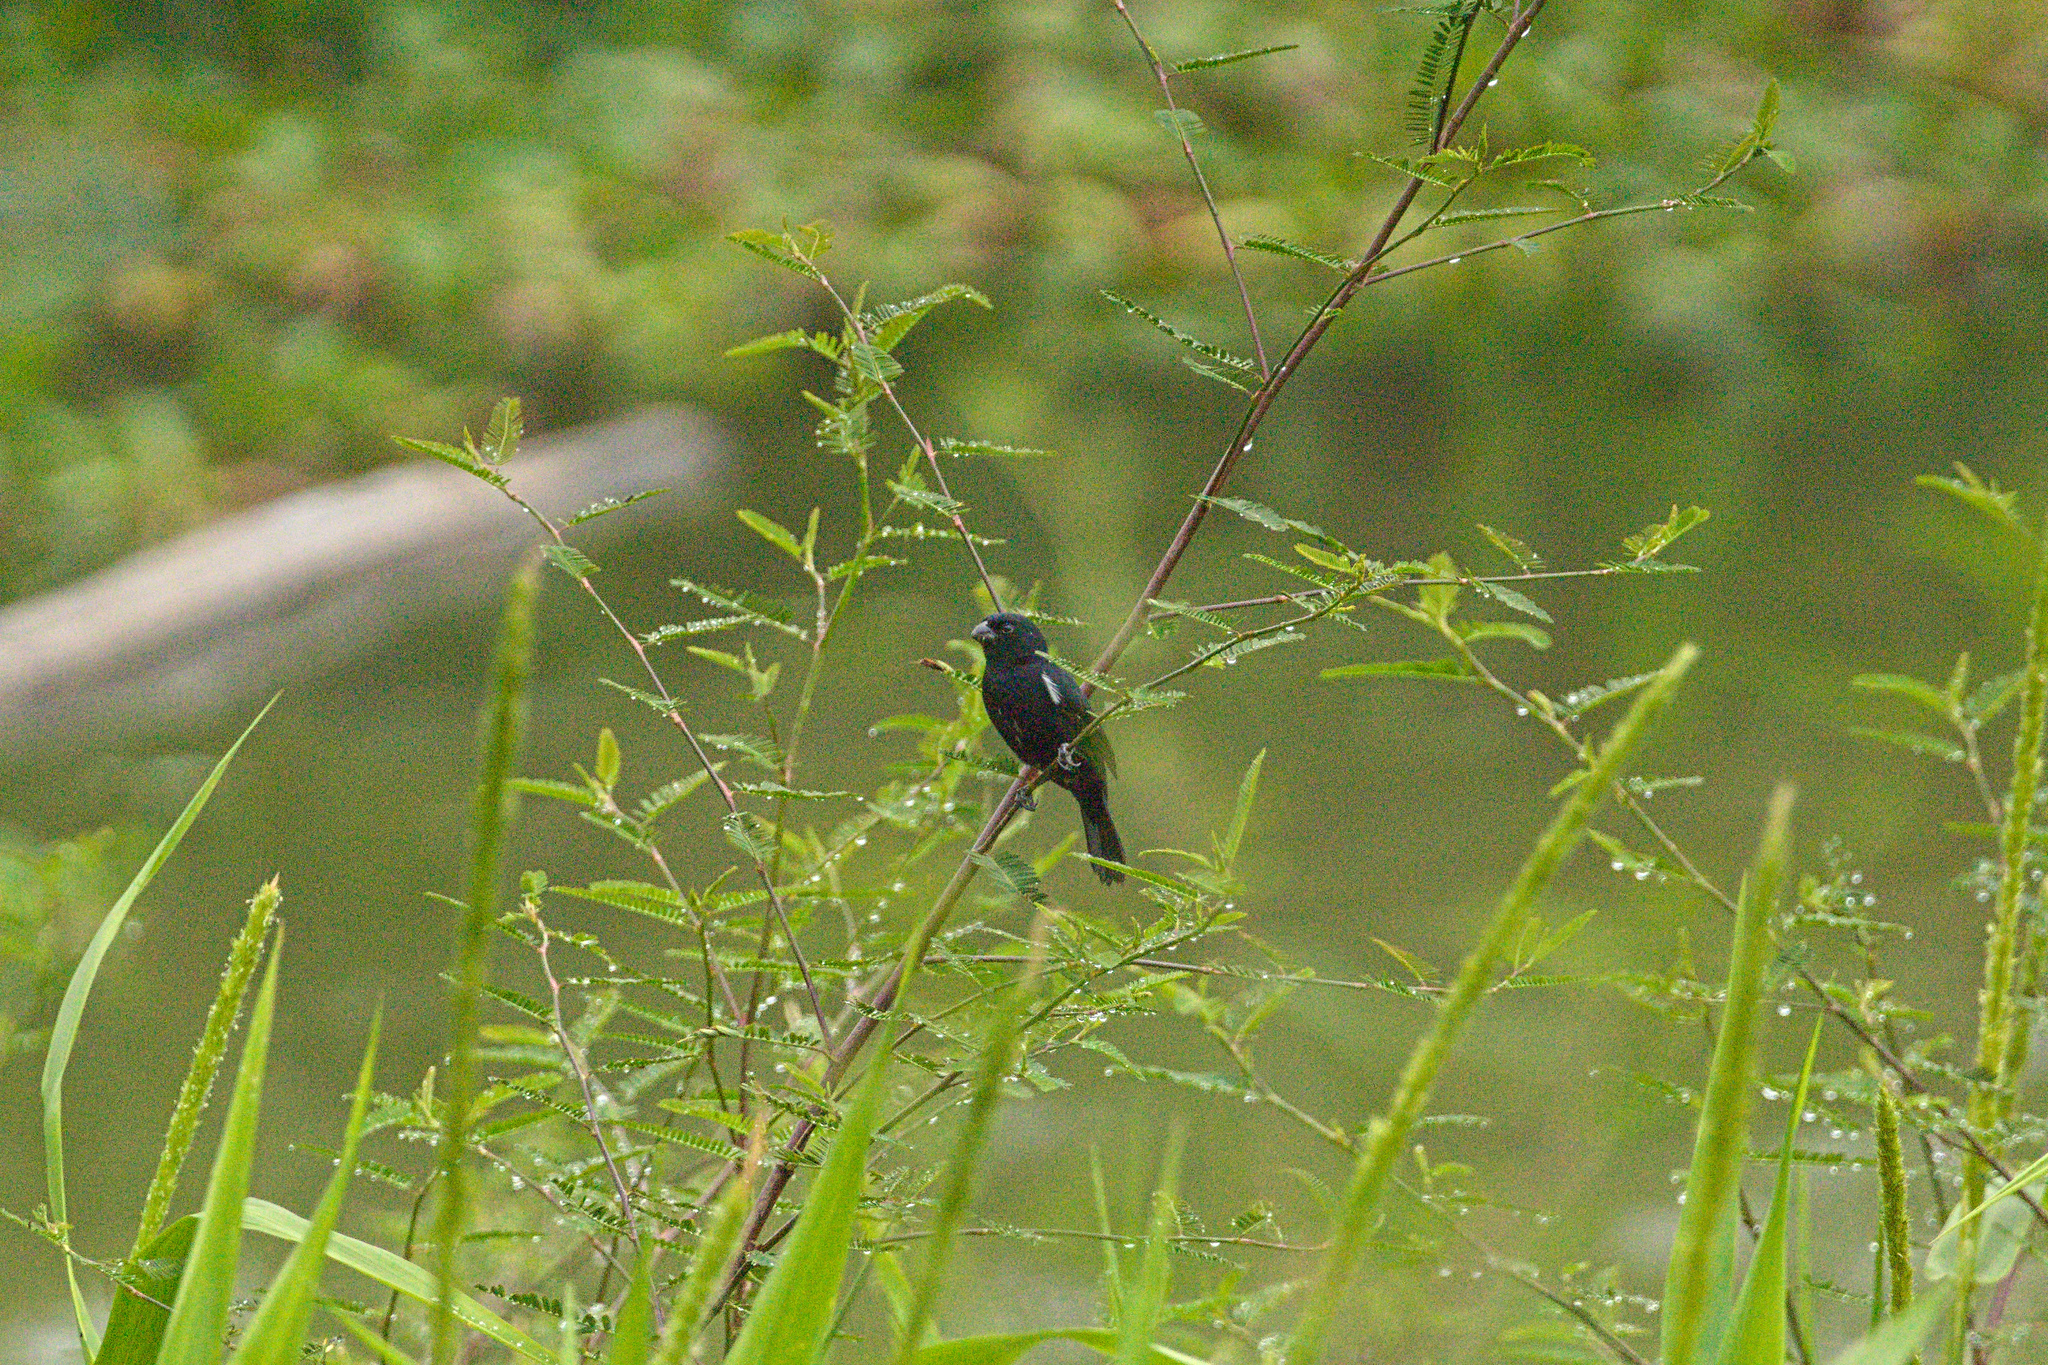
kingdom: Animalia
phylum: Chordata
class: Aves
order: Passeriformes
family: Thraupidae
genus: Sporophila
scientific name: Sporophila corvina
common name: Variable seedeater
